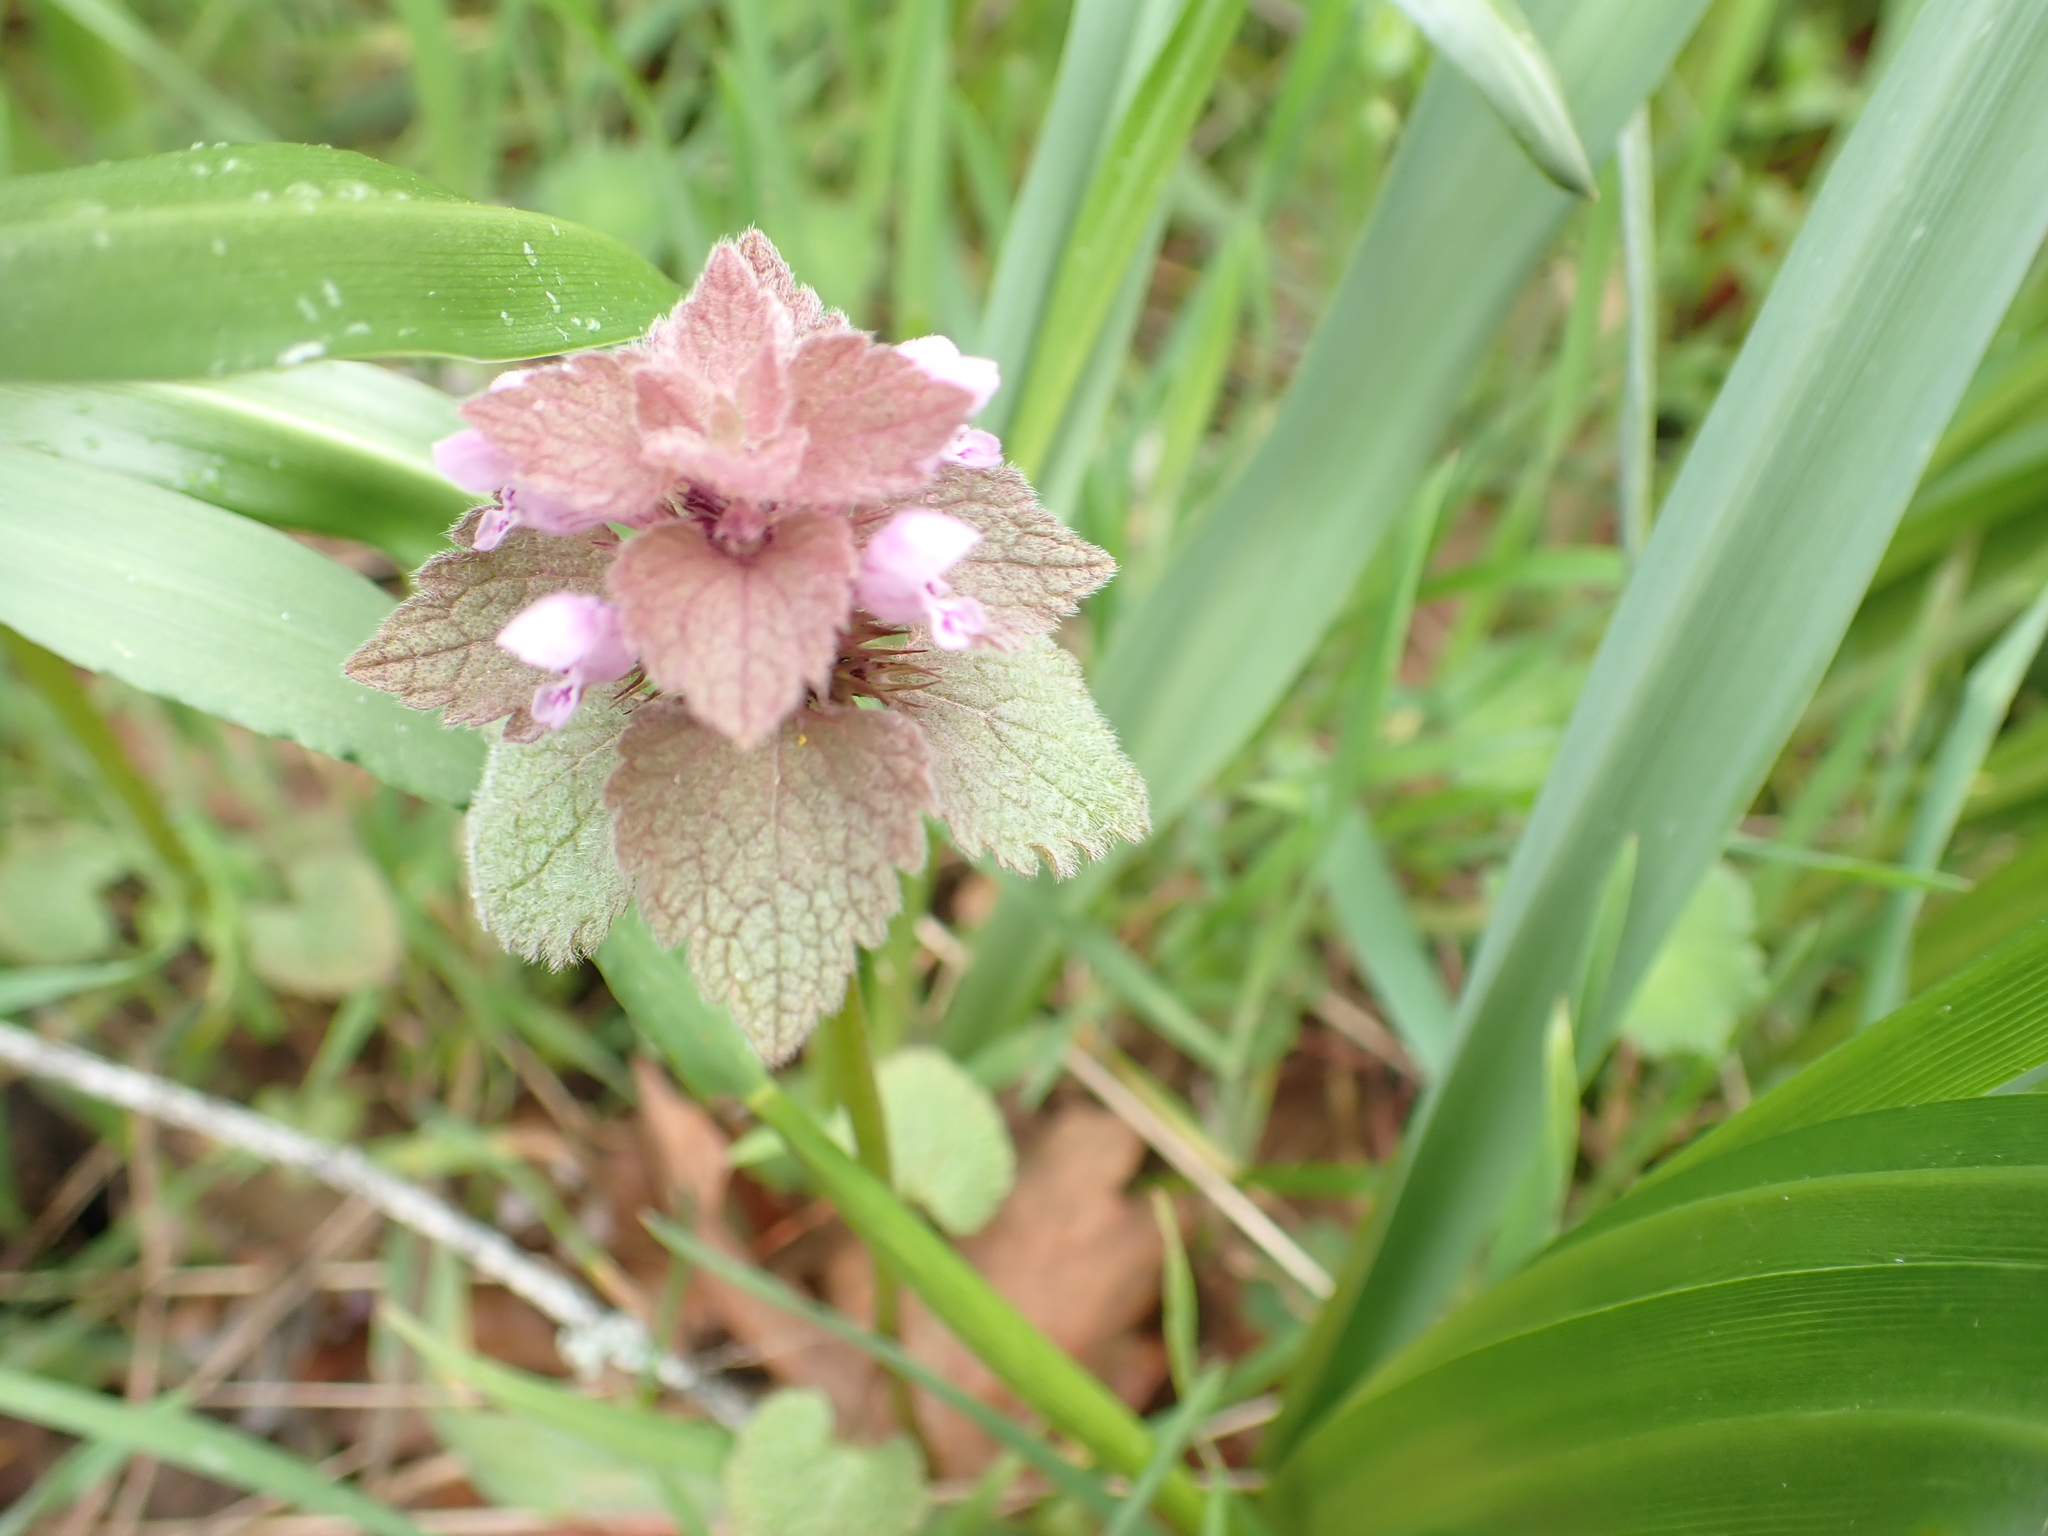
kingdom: Plantae
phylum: Tracheophyta
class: Magnoliopsida
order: Lamiales
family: Lamiaceae
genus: Lamium
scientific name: Lamium purpureum
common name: Red dead-nettle
